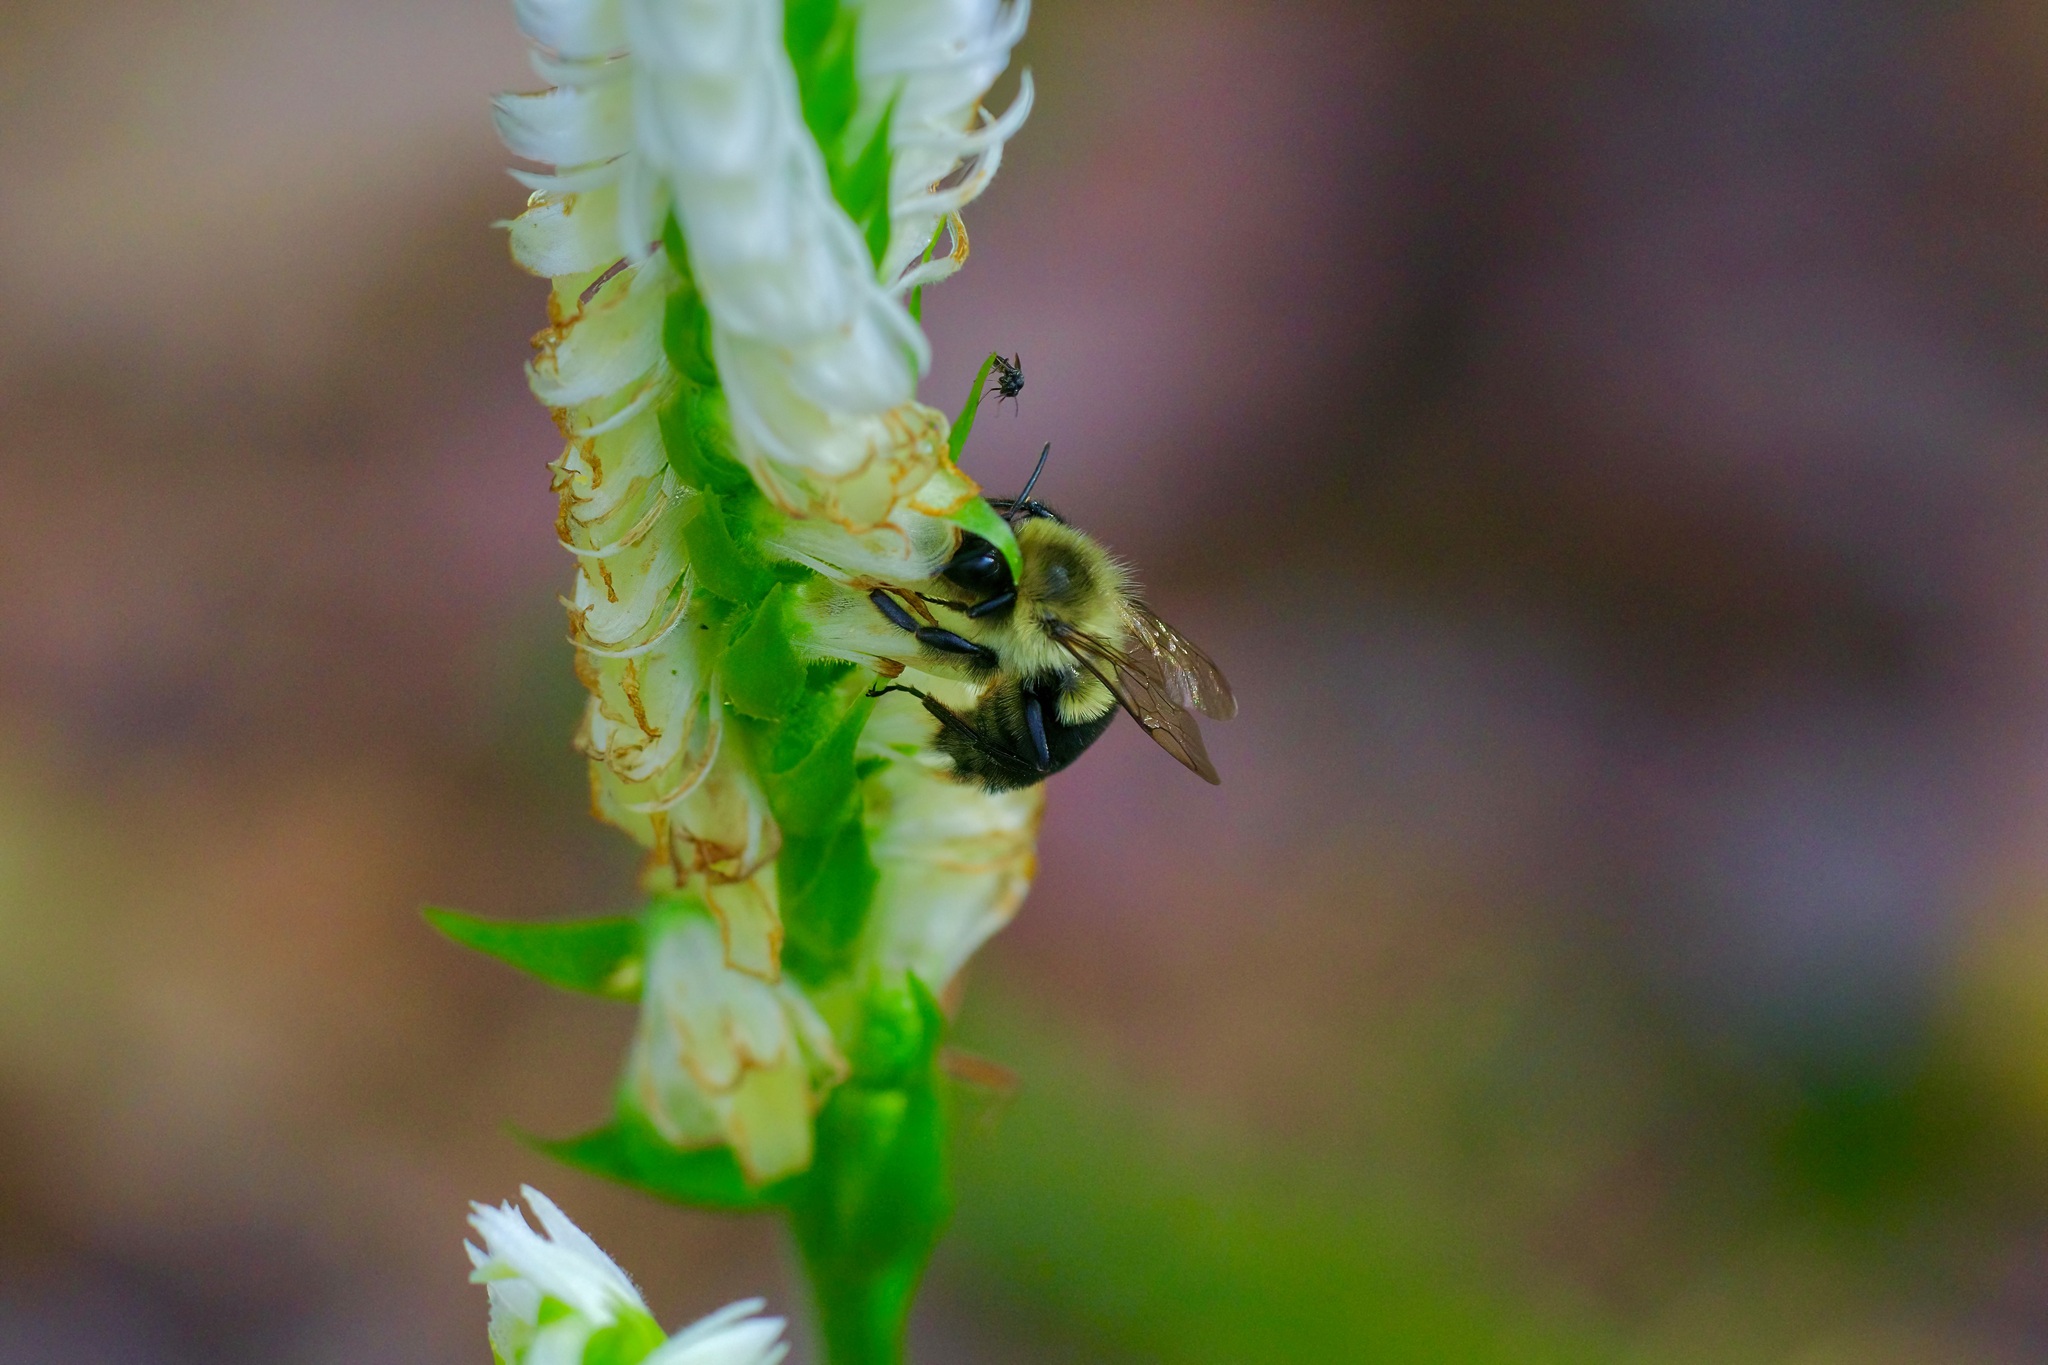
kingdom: Animalia
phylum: Arthropoda
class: Insecta
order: Hymenoptera
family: Apidae
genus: Bombus
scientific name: Bombus impatiens
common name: Common eastern bumble bee
